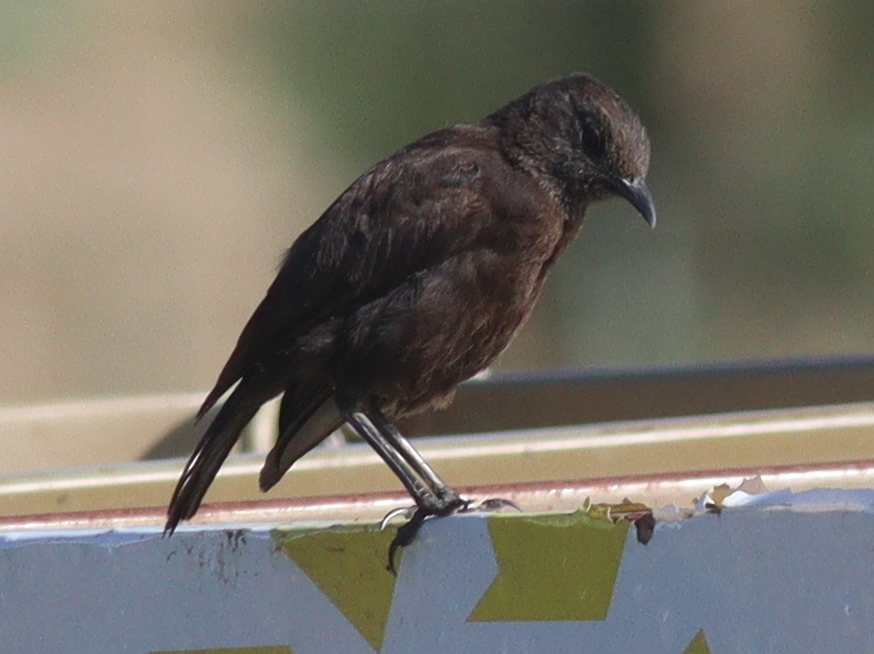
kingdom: Animalia
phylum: Chordata
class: Aves
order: Passeriformes
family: Muscicapidae
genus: Myrmecocichla
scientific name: Myrmecocichla aethiops
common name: Anteater chat
